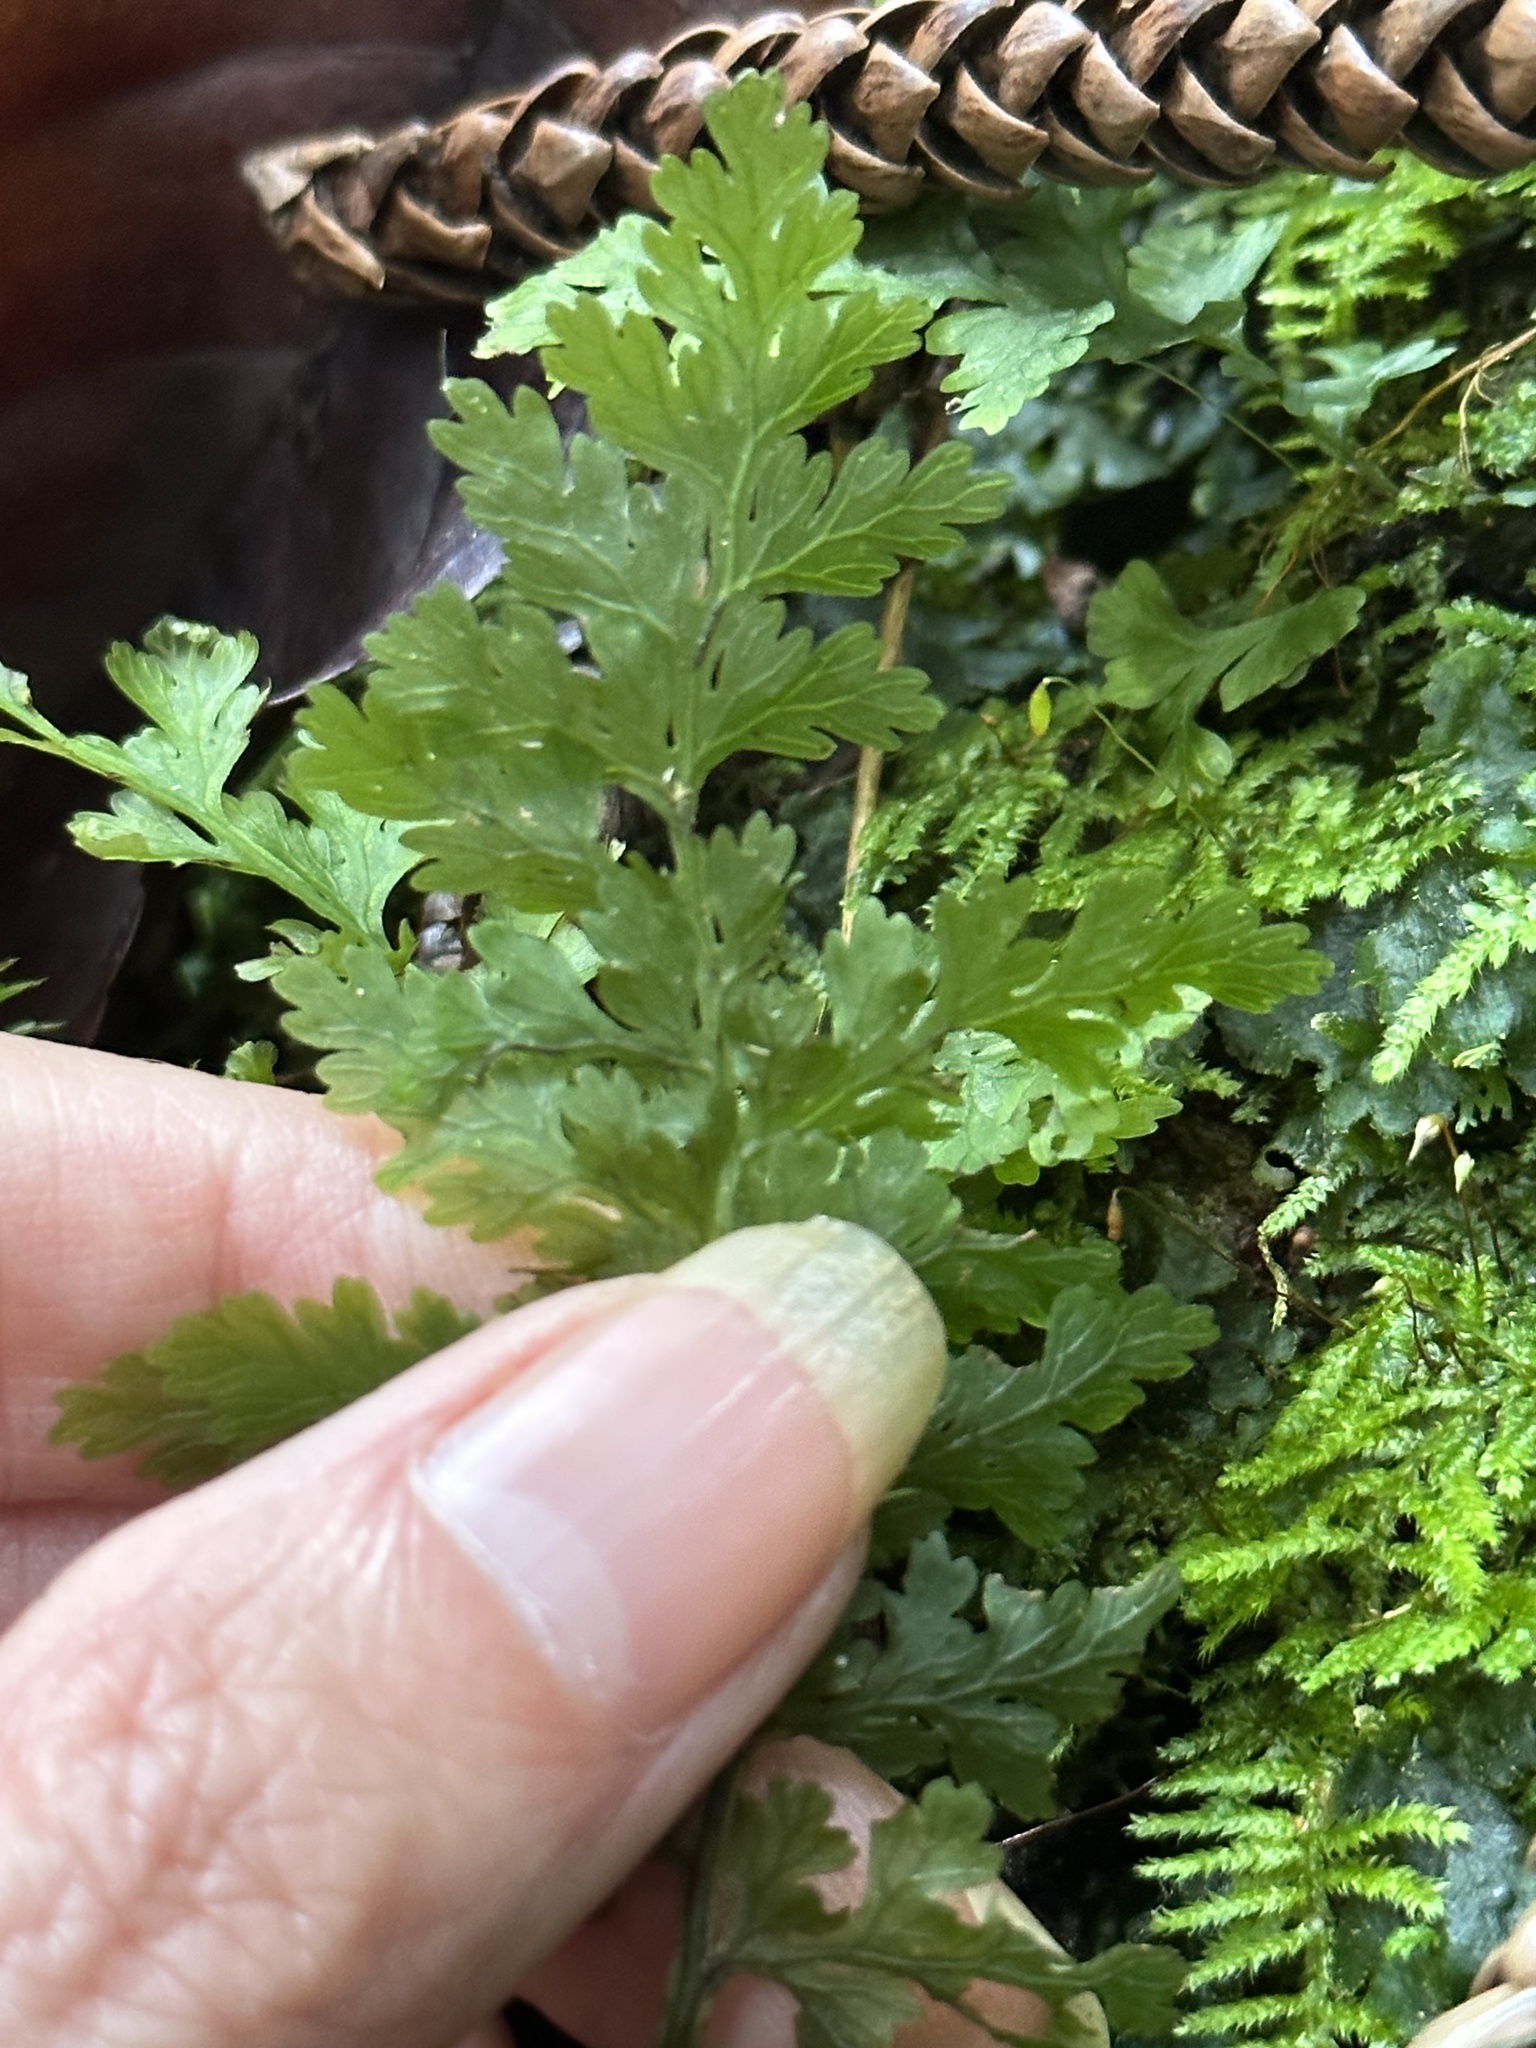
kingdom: Plantae
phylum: Tracheophyta
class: Polypodiopsida
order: Hymenophyllales
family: Hymenophyllaceae
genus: Vandenboschia
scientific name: Vandenboschia davallioides
